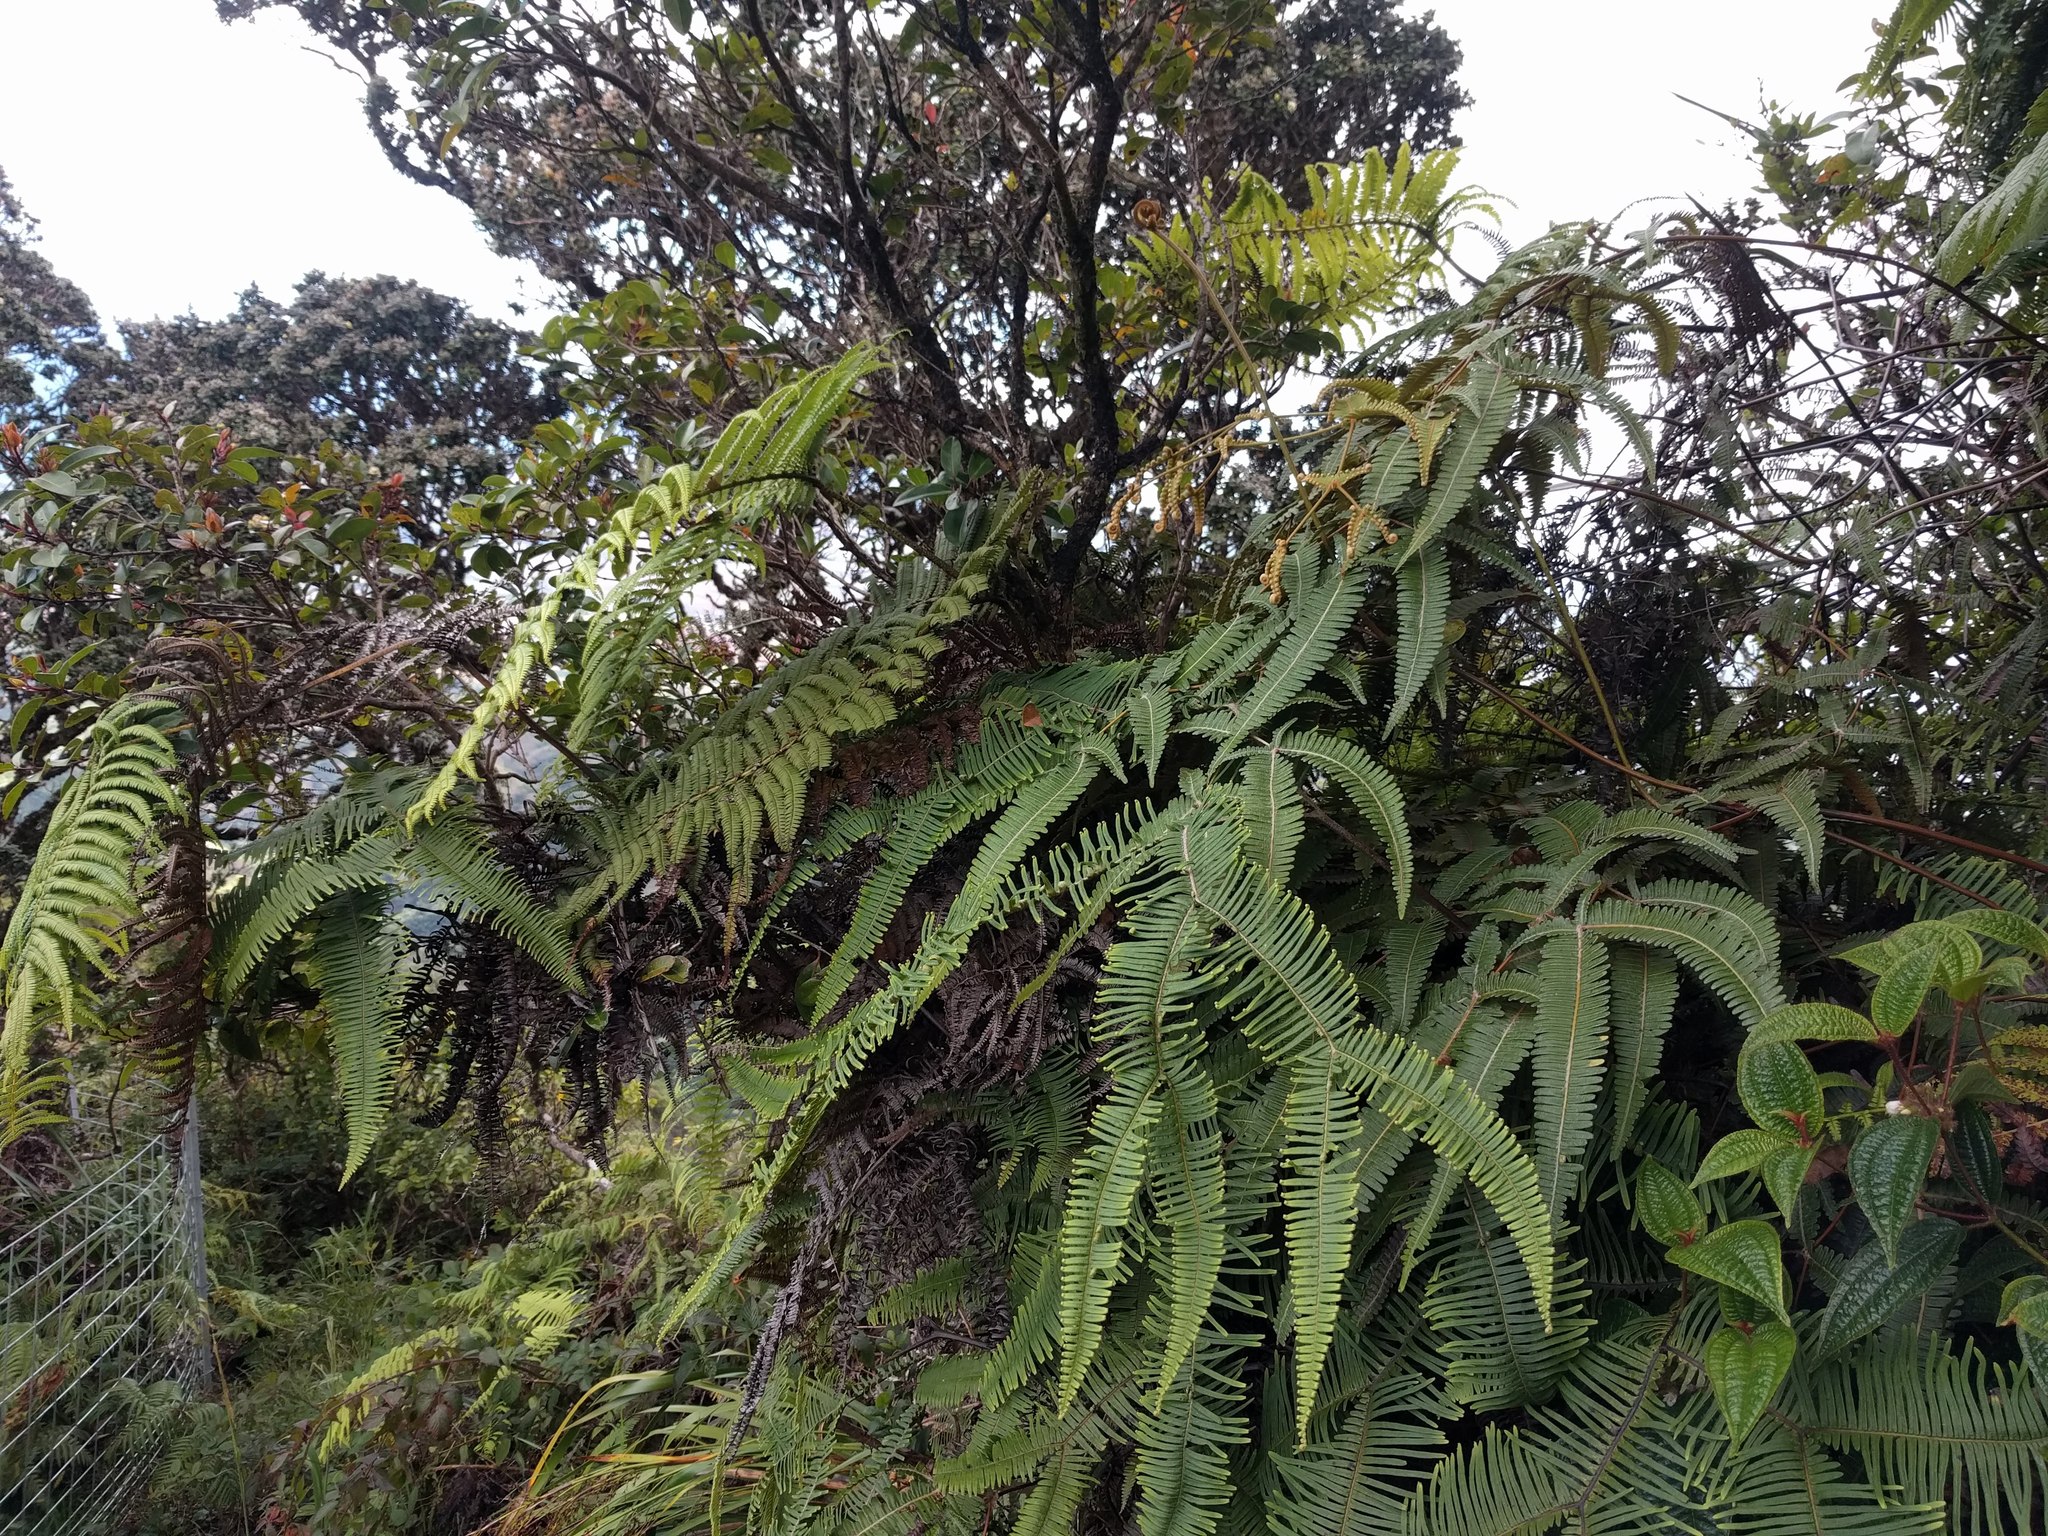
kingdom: Plantae
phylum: Tracheophyta
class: Polypodiopsida
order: Gleicheniales
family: Gleicheniaceae
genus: Sticherus
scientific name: Sticherus owhyhensis
